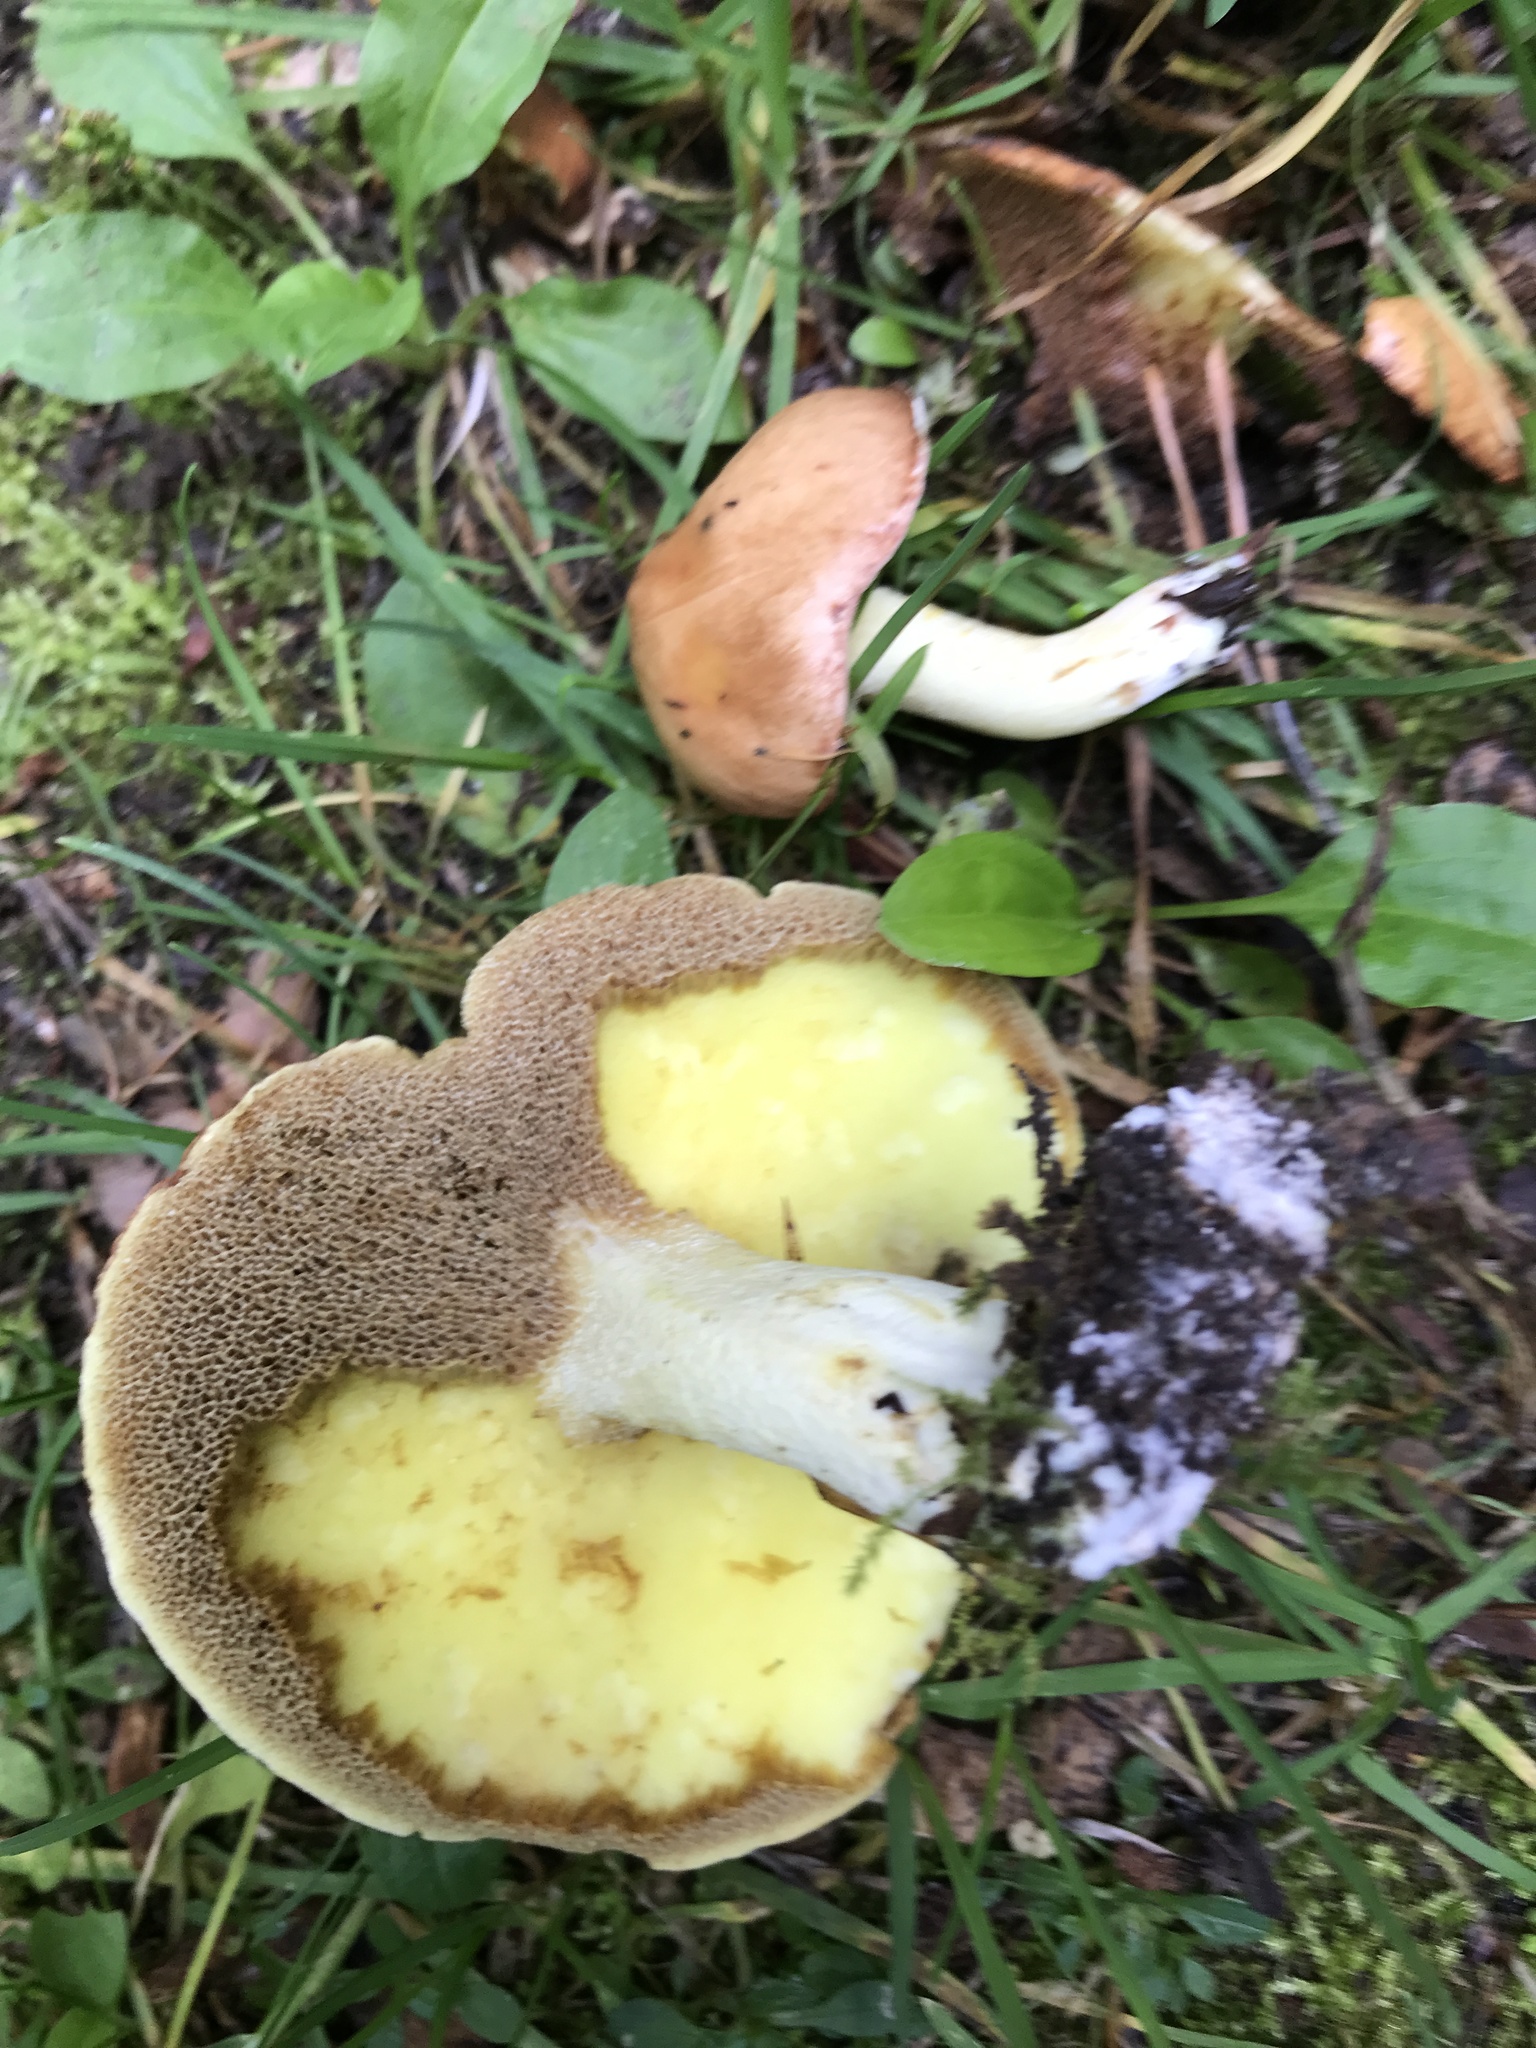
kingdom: Fungi
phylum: Basidiomycota
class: Agaricomycetes
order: Boletales
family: Suillaceae
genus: Suillus
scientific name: Suillus granulatus
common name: Weeping bolete
